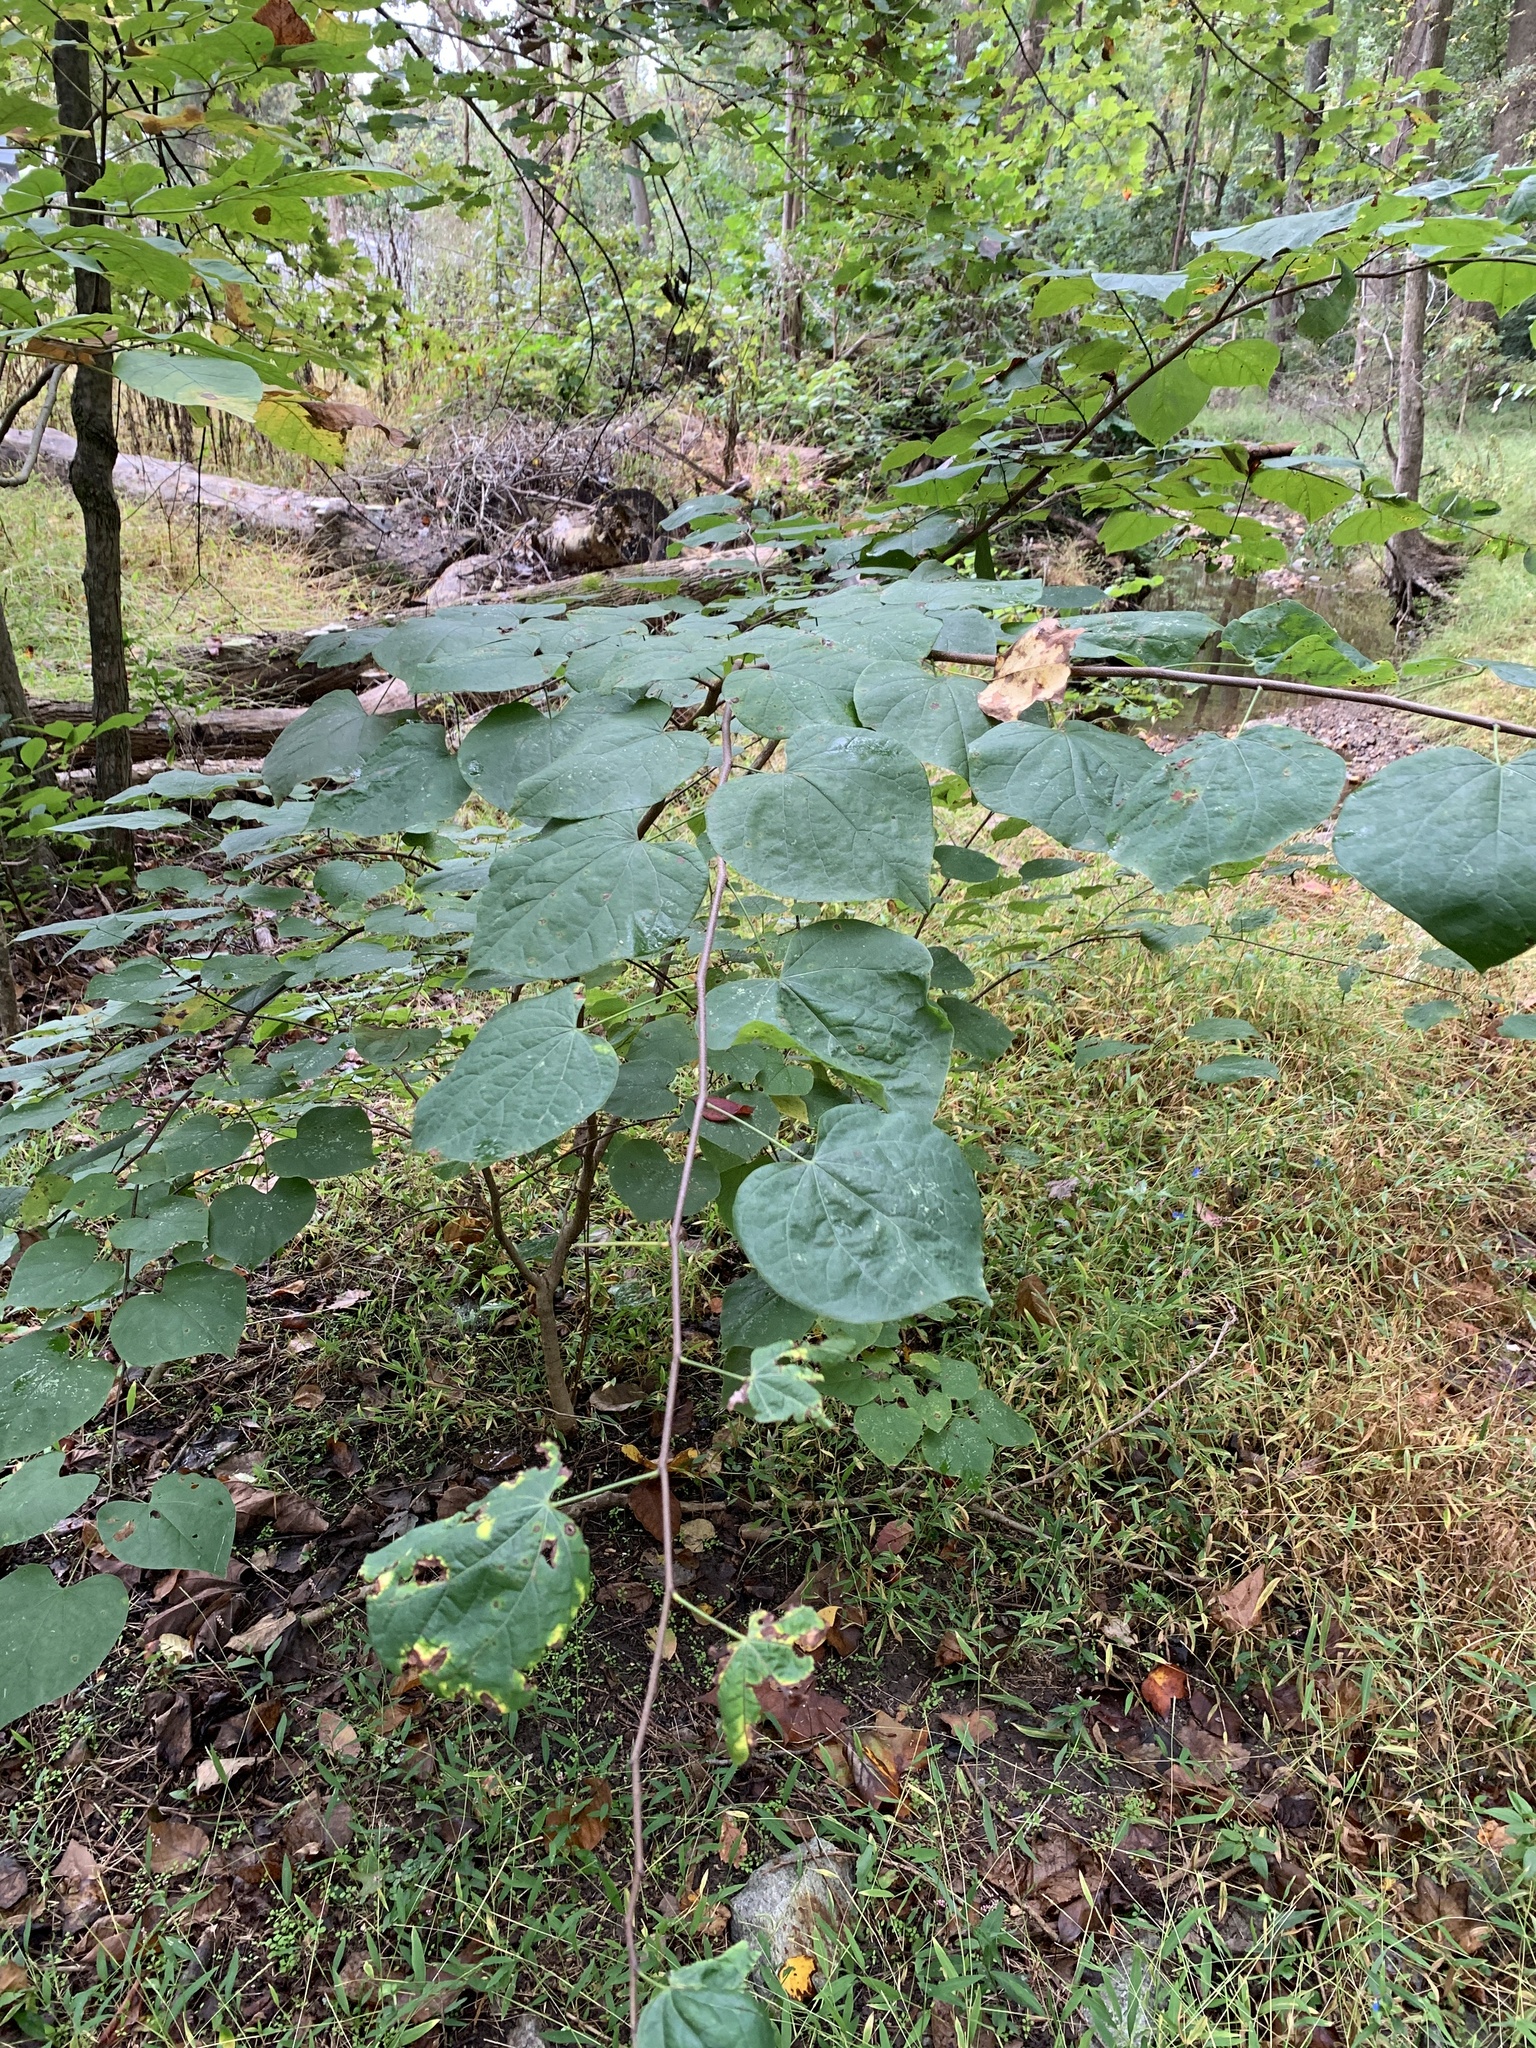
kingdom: Plantae
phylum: Tracheophyta
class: Magnoliopsida
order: Fabales
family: Fabaceae
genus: Cercis
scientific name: Cercis canadensis
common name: Eastern redbud
